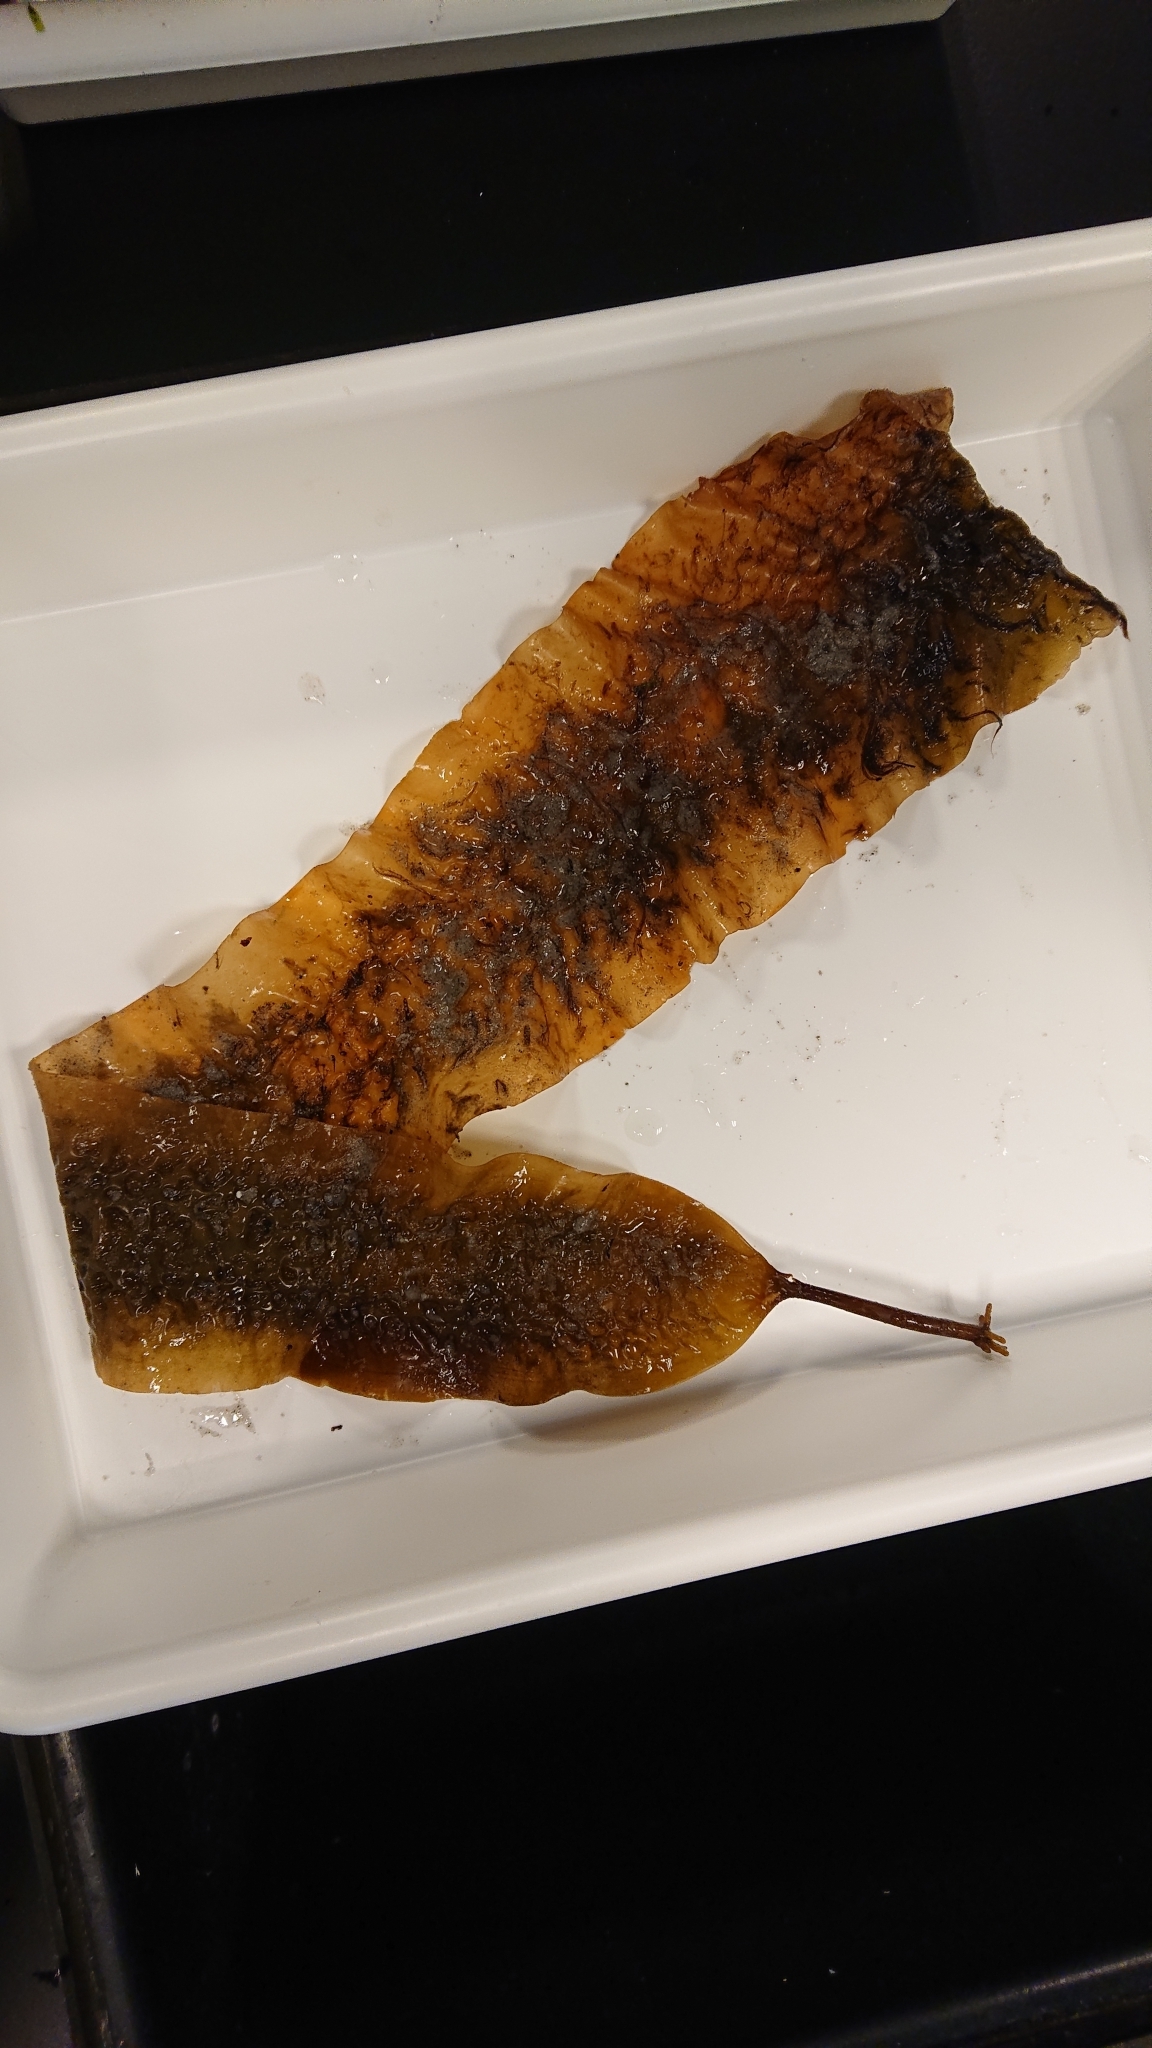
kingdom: Chromista
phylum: Ochrophyta
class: Phaeophyceae
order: Laminariales
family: Laminariaceae
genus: Saccharina
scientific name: Saccharina latissima
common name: Poor man's weather glass
